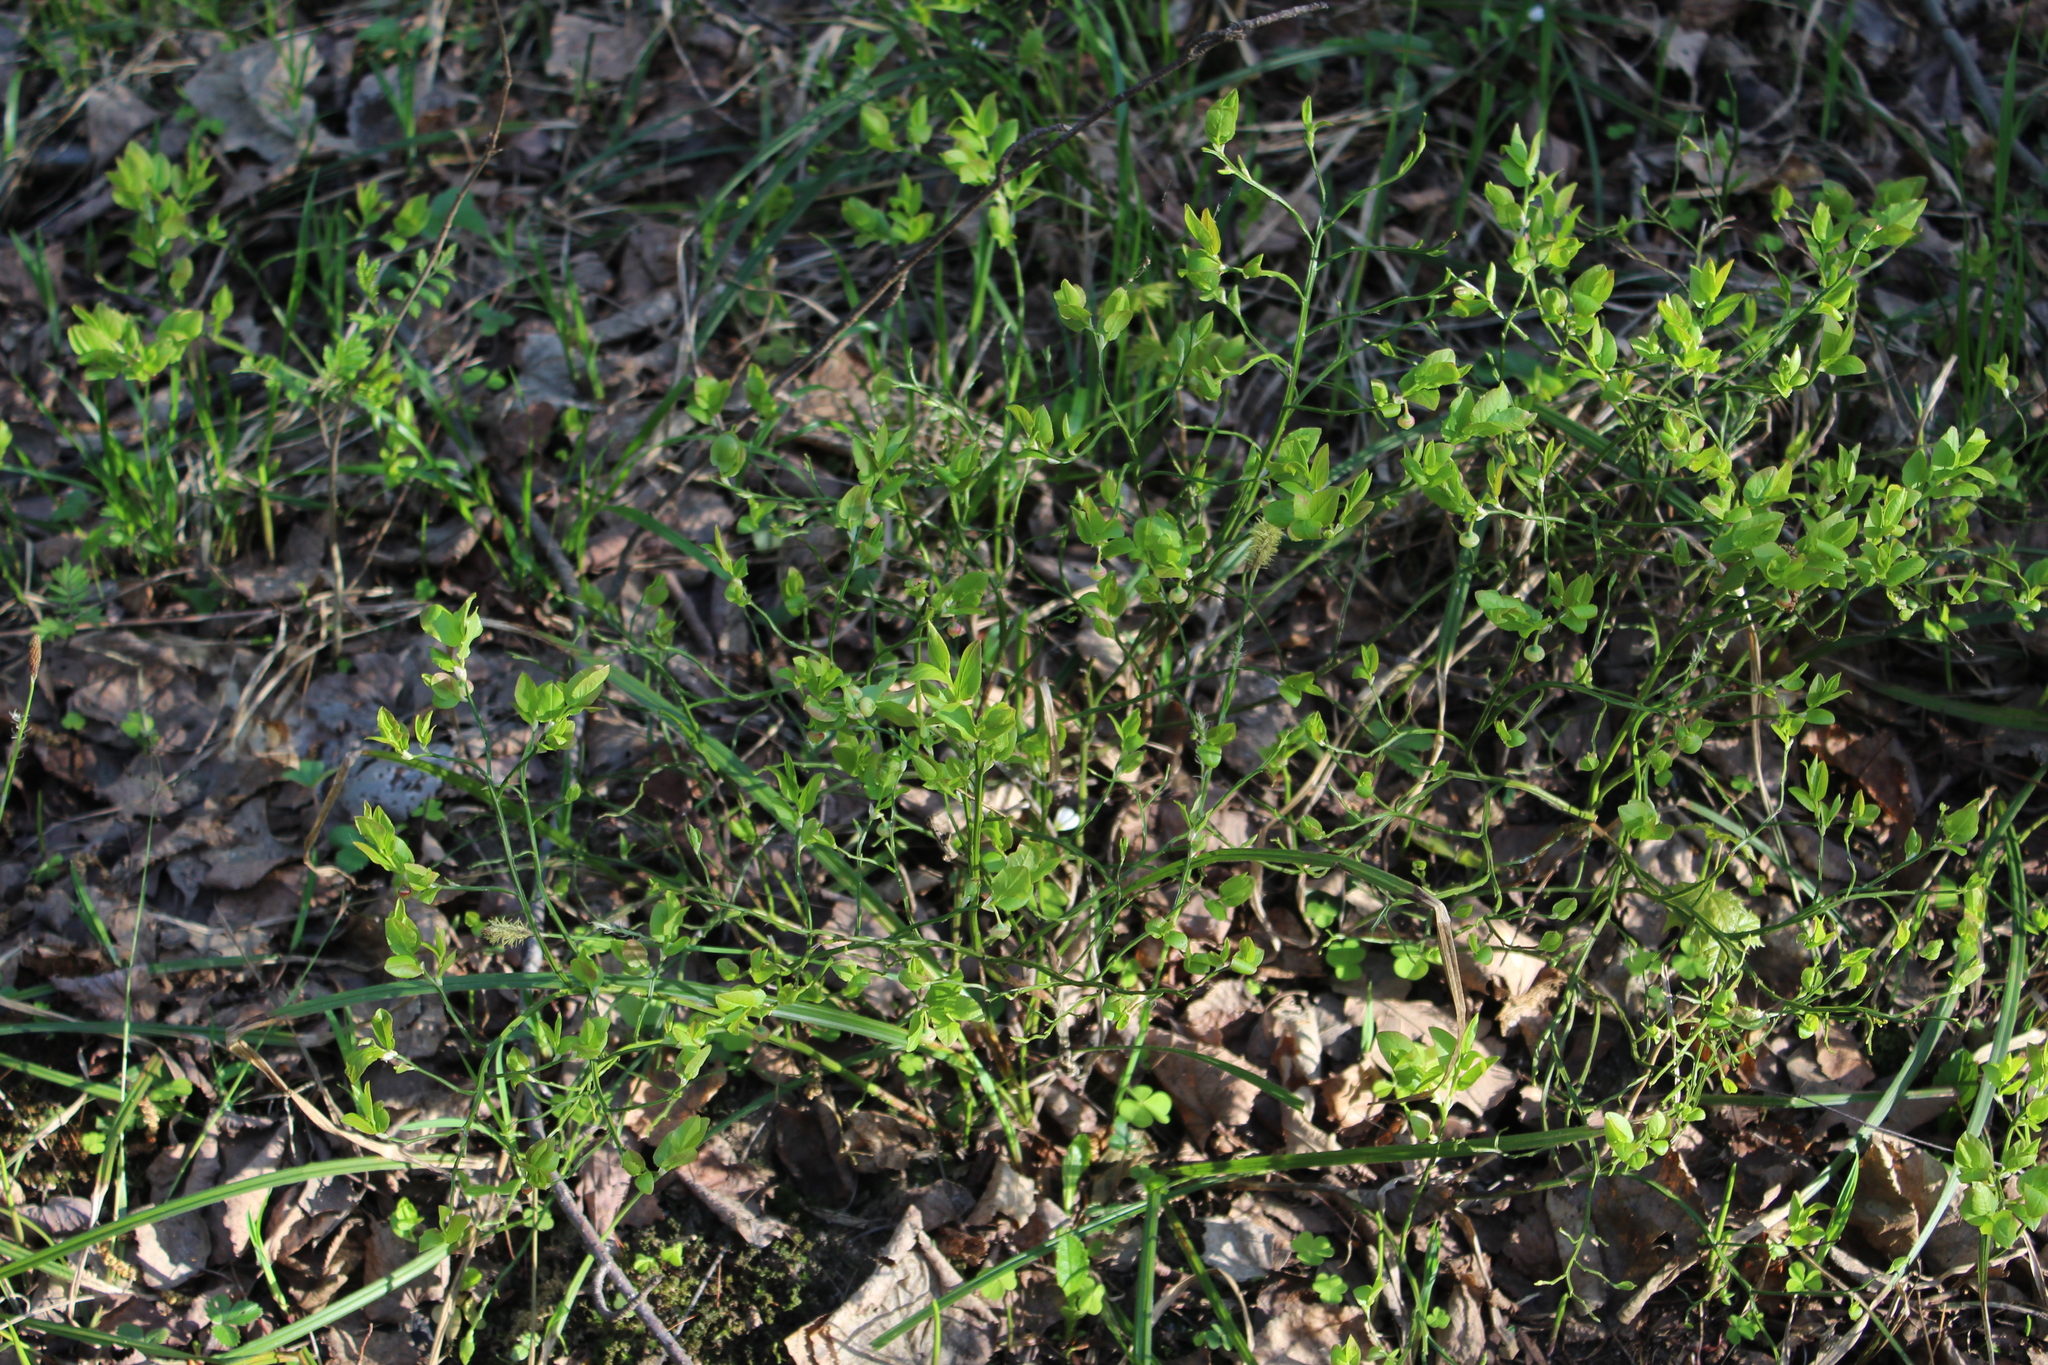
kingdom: Plantae
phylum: Tracheophyta
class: Magnoliopsida
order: Ericales
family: Ericaceae
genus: Vaccinium
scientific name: Vaccinium myrtillus
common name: Bilberry
